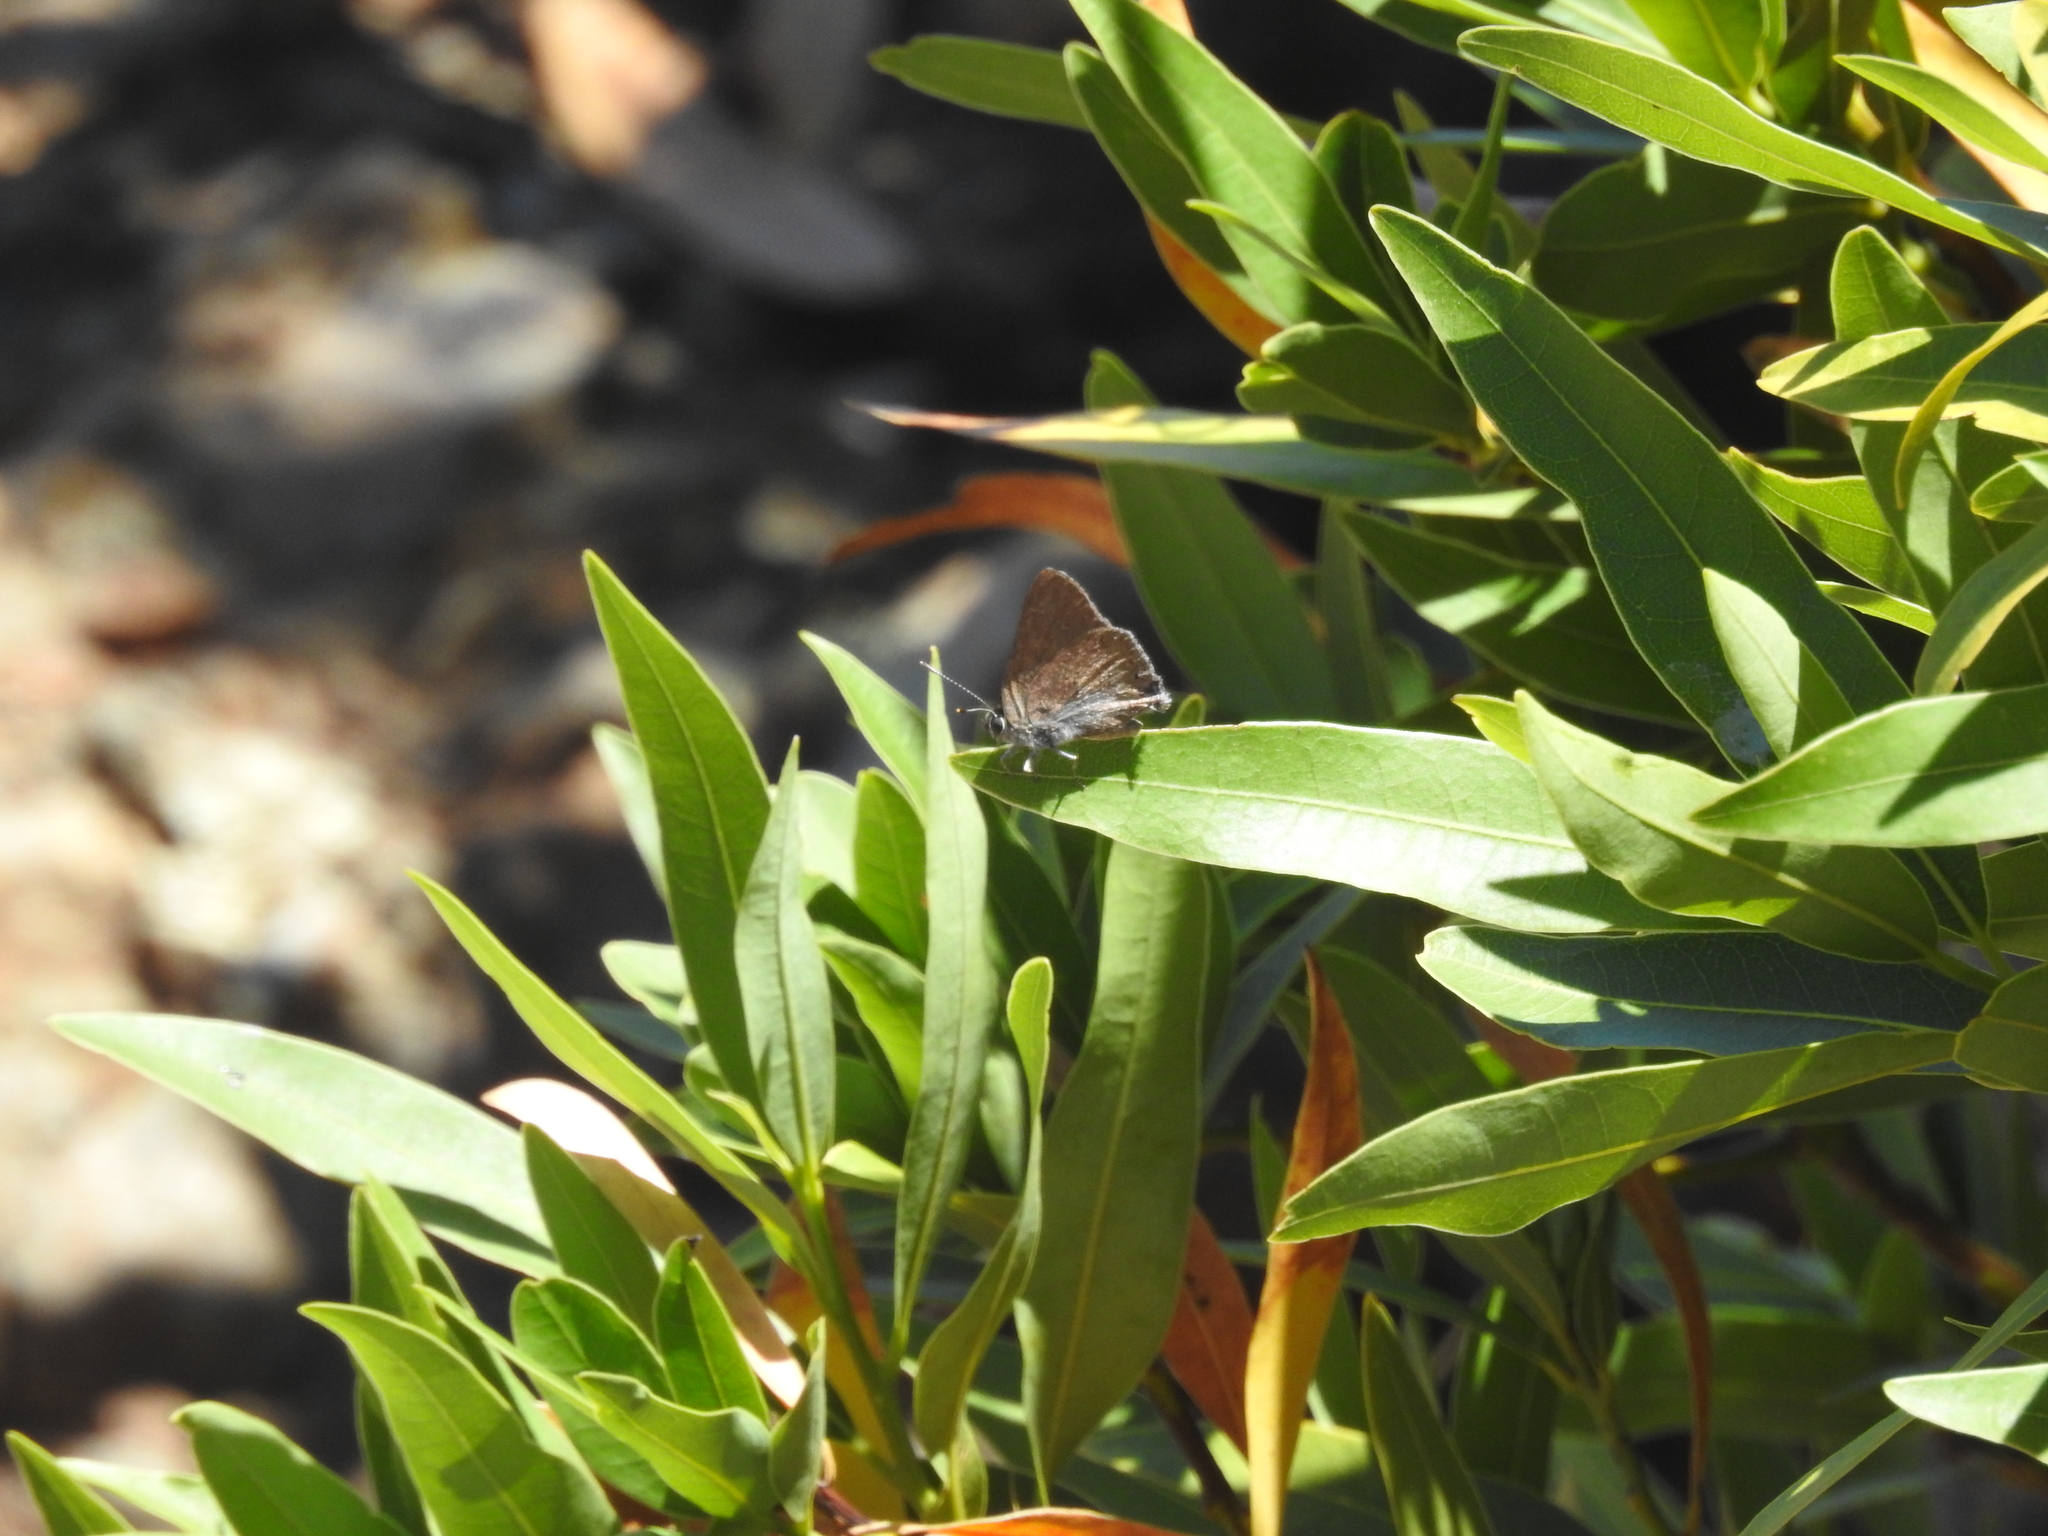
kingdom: Animalia
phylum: Arthropoda
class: Insecta
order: Lepidoptera
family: Lycaenidae
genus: Thecla
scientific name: Thecla tetra
